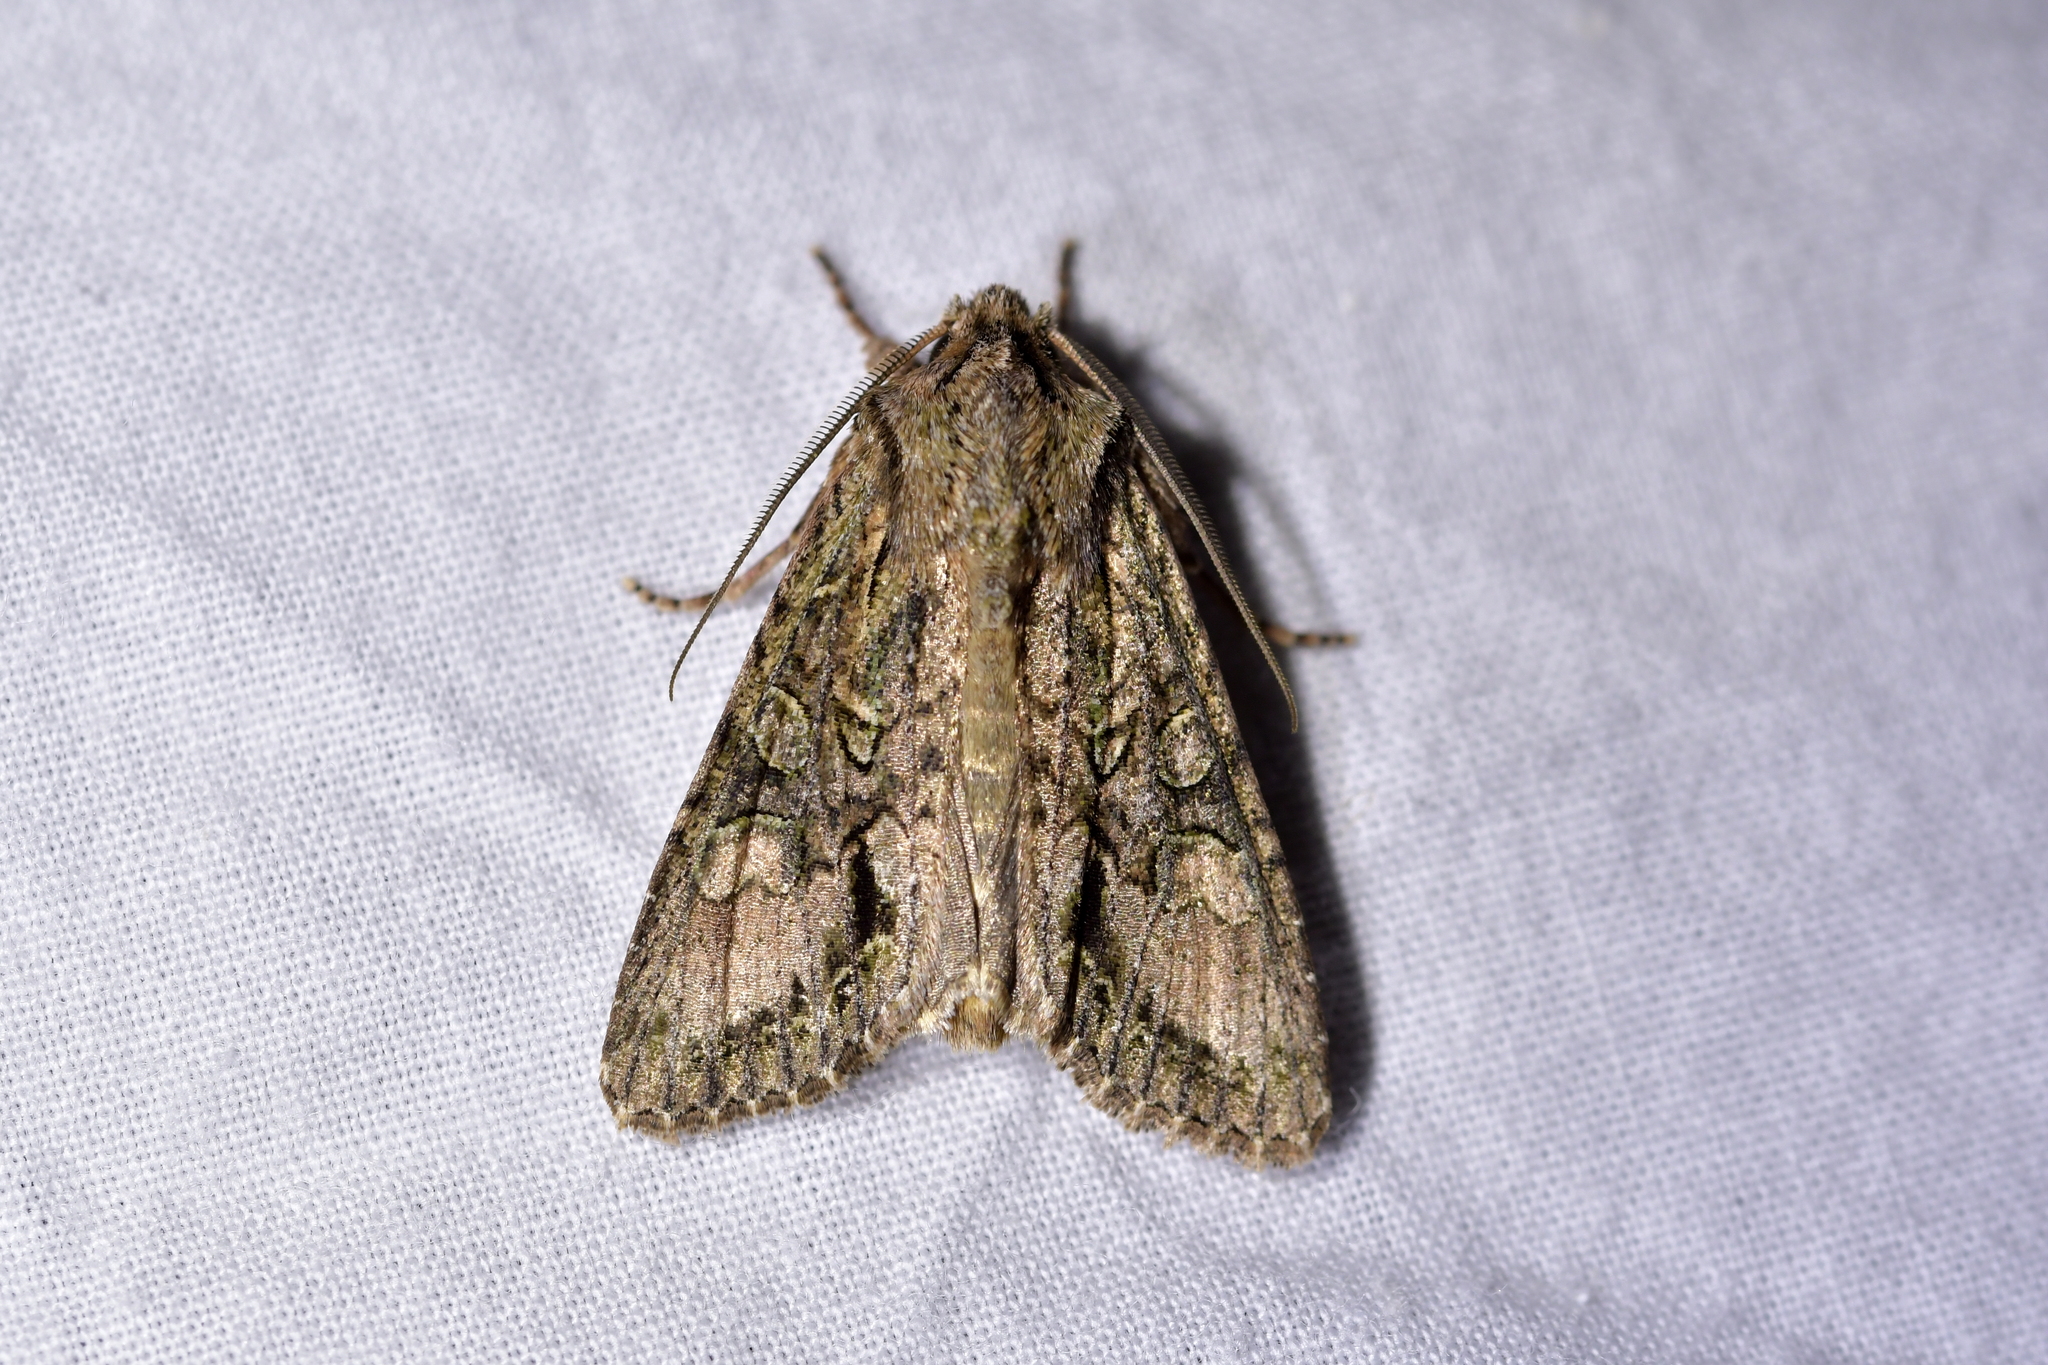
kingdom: Animalia
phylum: Arthropoda
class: Insecta
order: Lepidoptera
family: Noctuidae
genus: Ichneutica
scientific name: Ichneutica mutans
